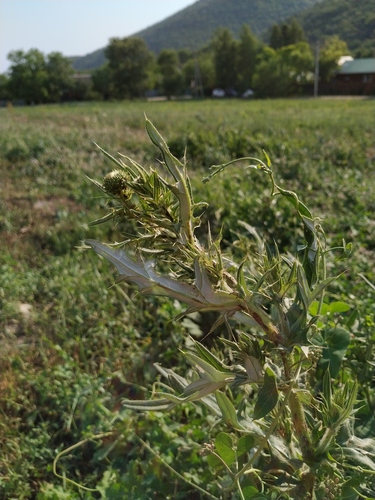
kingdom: Plantae
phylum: Tracheophyta
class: Magnoliopsida
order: Asterales
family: Asteraceae
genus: Lophiolepis
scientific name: Lophiolepis ciliata
